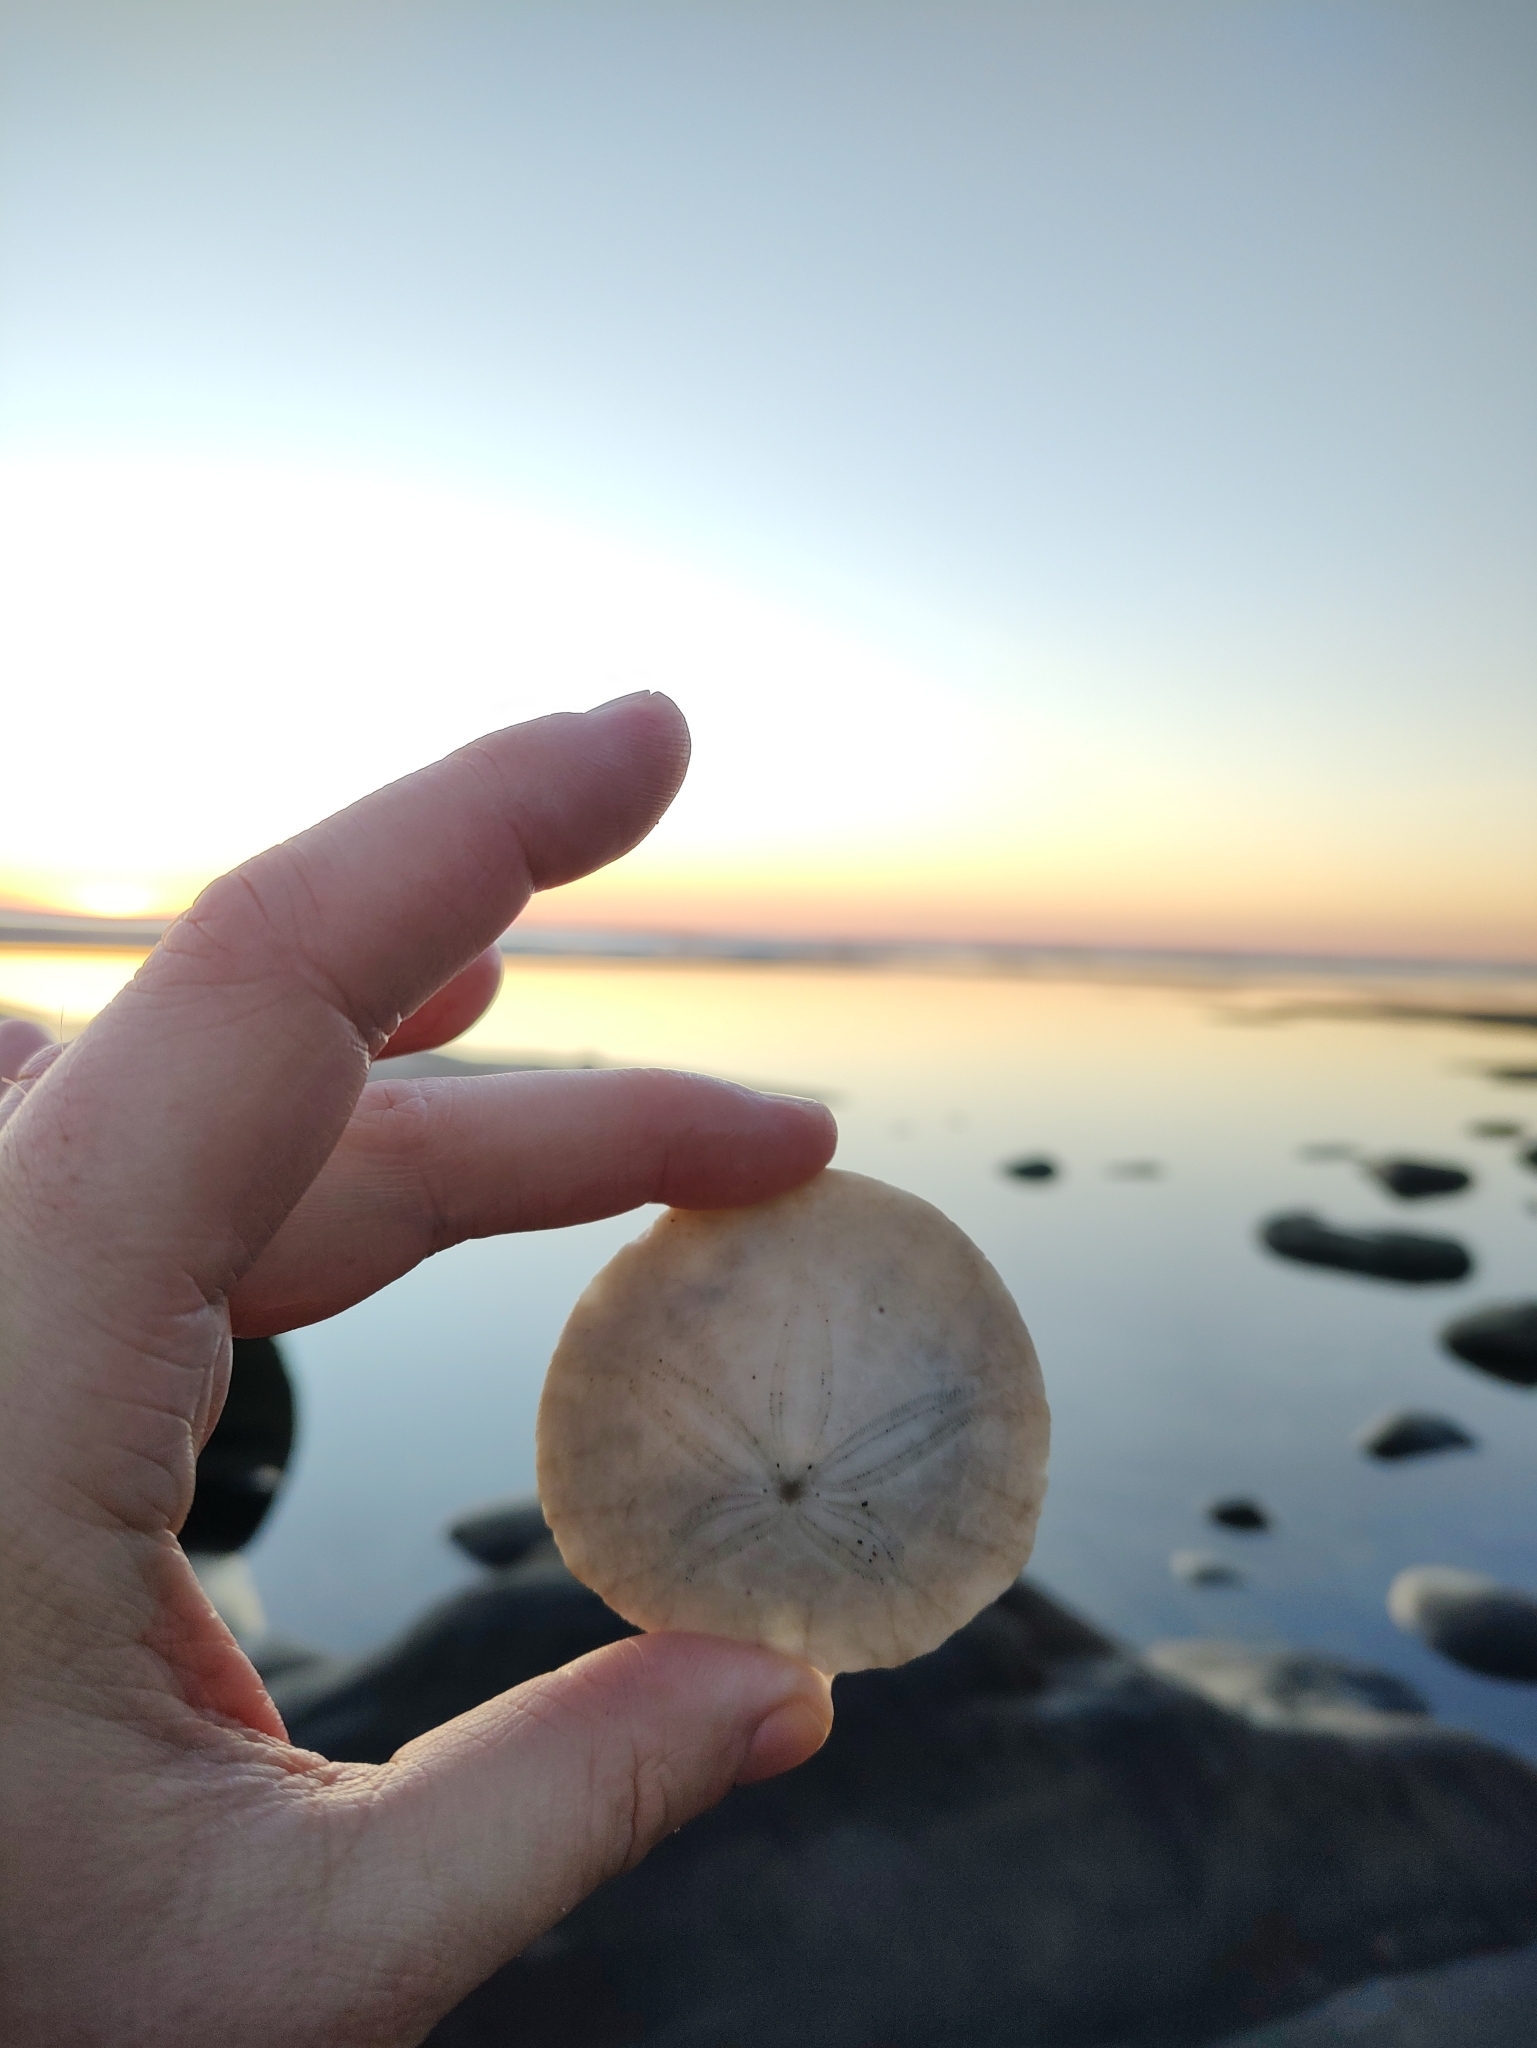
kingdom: Animalia
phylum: Echinodermata
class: Echinoidea
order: Echinolampadacea
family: Dendrasteridae
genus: Dendraster
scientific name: Dendraster excentricus
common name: Eccentric sand dollar sea urchin
